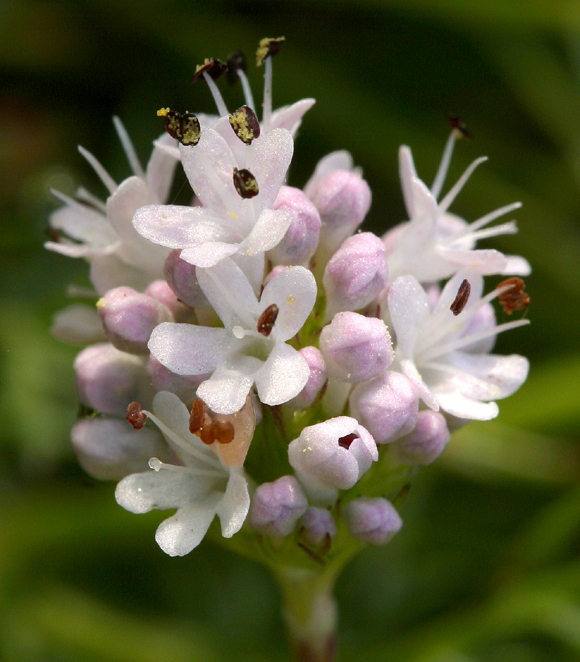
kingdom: Plantae
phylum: Tracheophyta
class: Magnoliopsida
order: Dipsacales
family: Caprifoliaceae
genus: Plectritis
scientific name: Plectritis brachystemon
